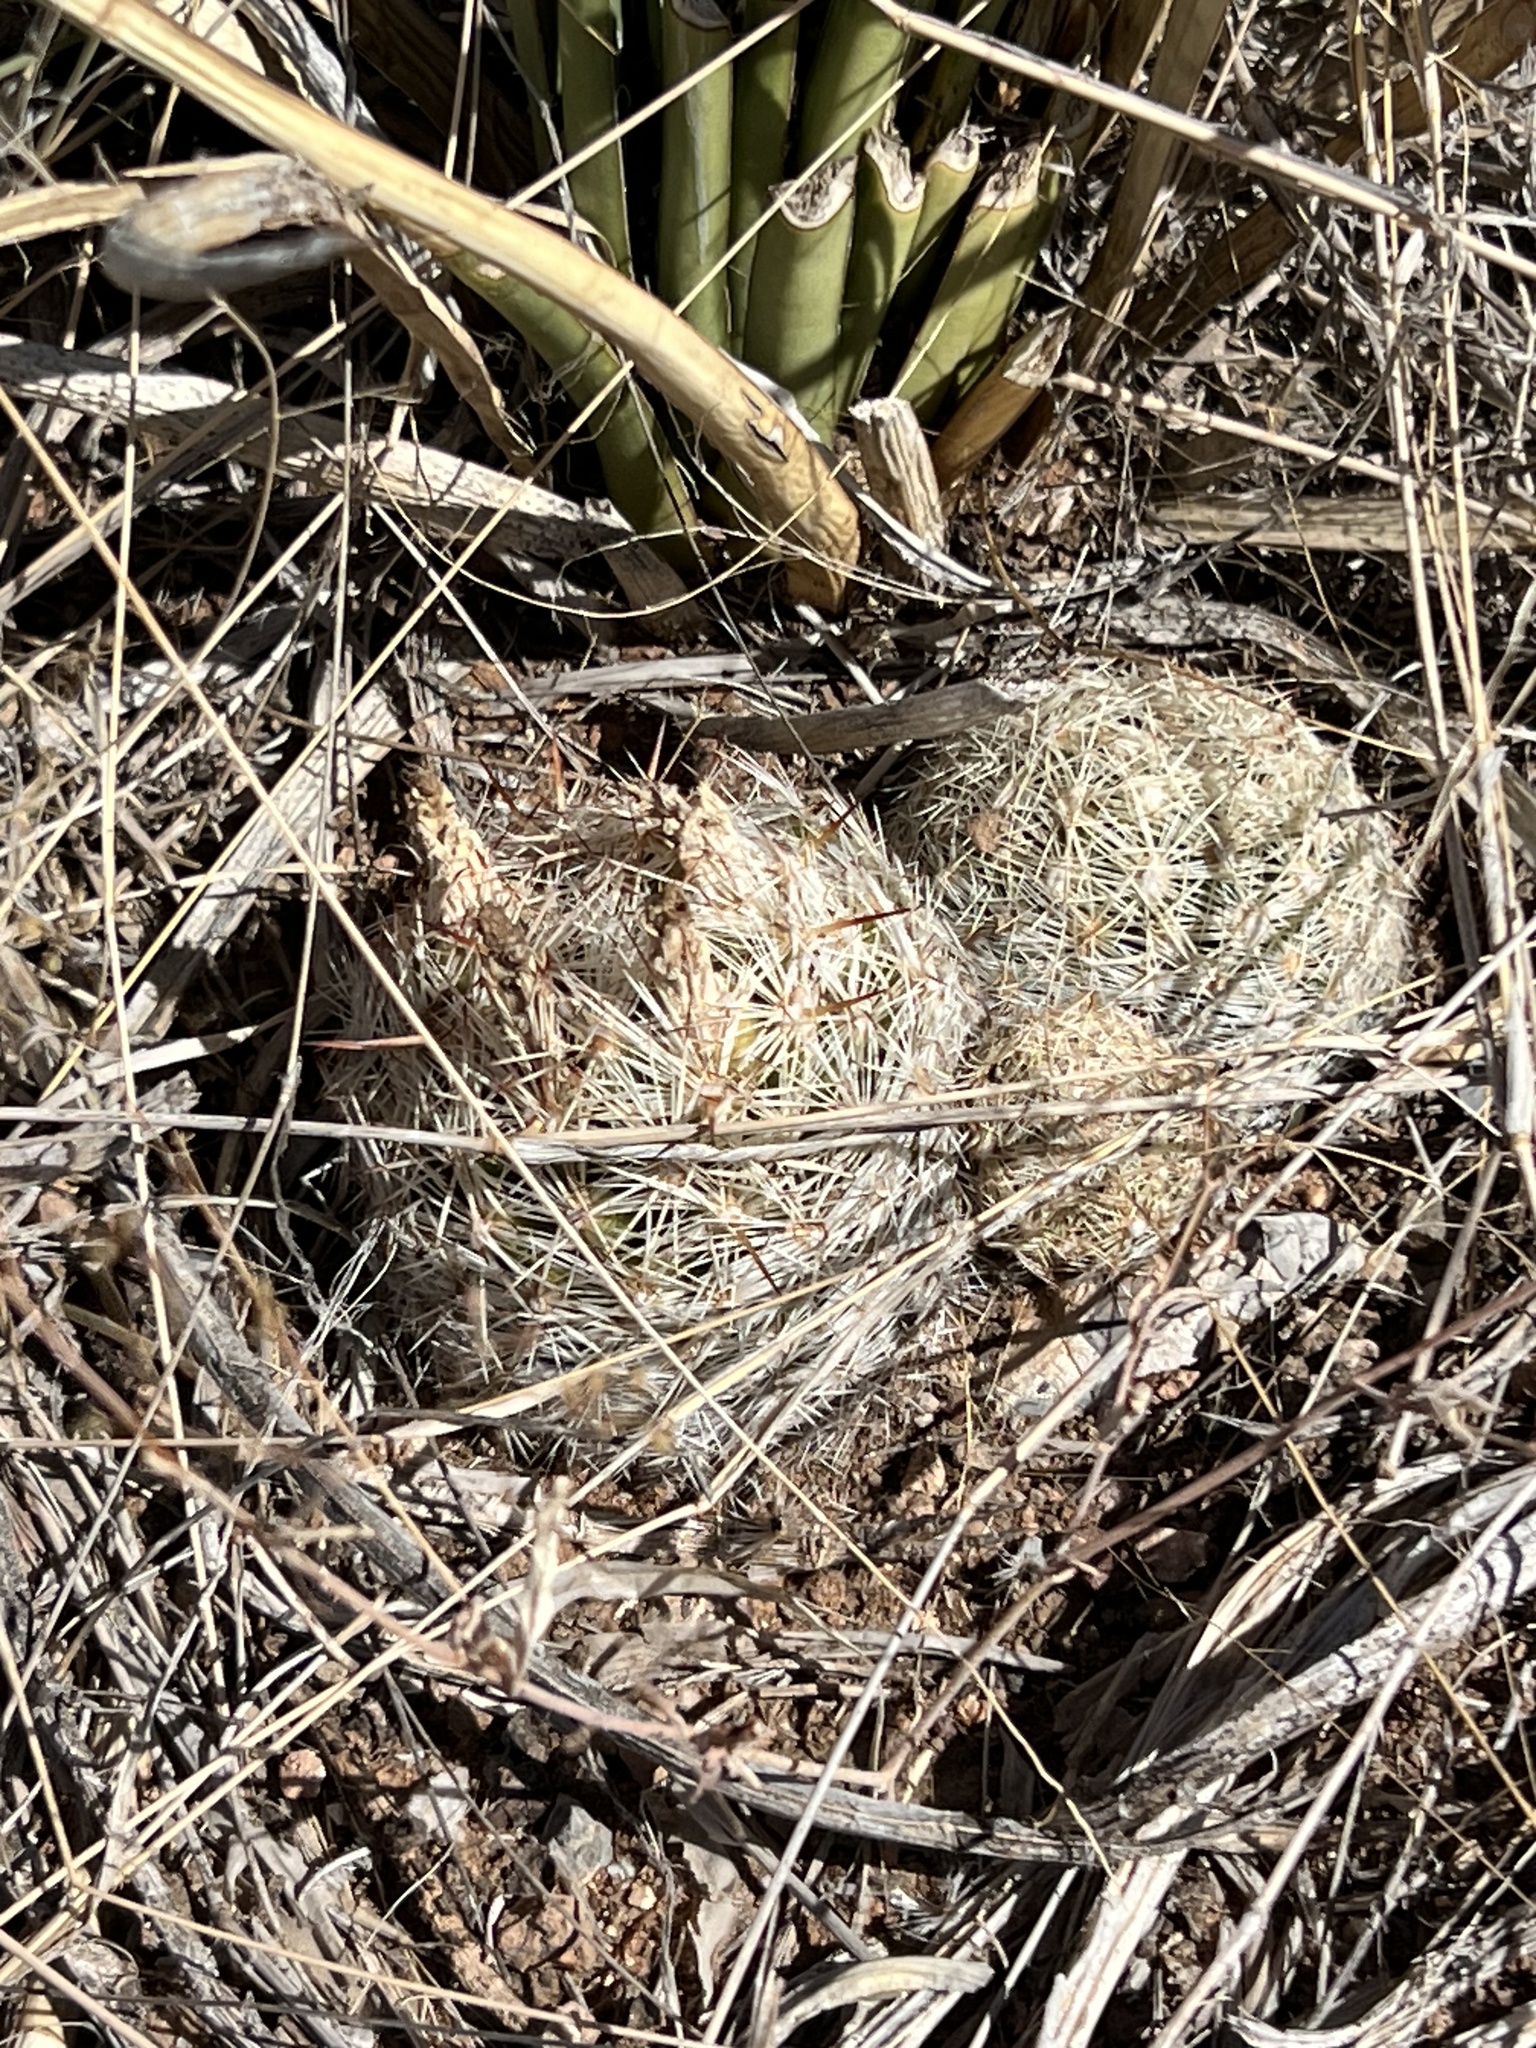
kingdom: Plantae
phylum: Tracheophyta
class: Magnoliopsida
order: Caryophyllales
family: Cactaceae
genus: Pelecyphora
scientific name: Pelecyphora vivipara
